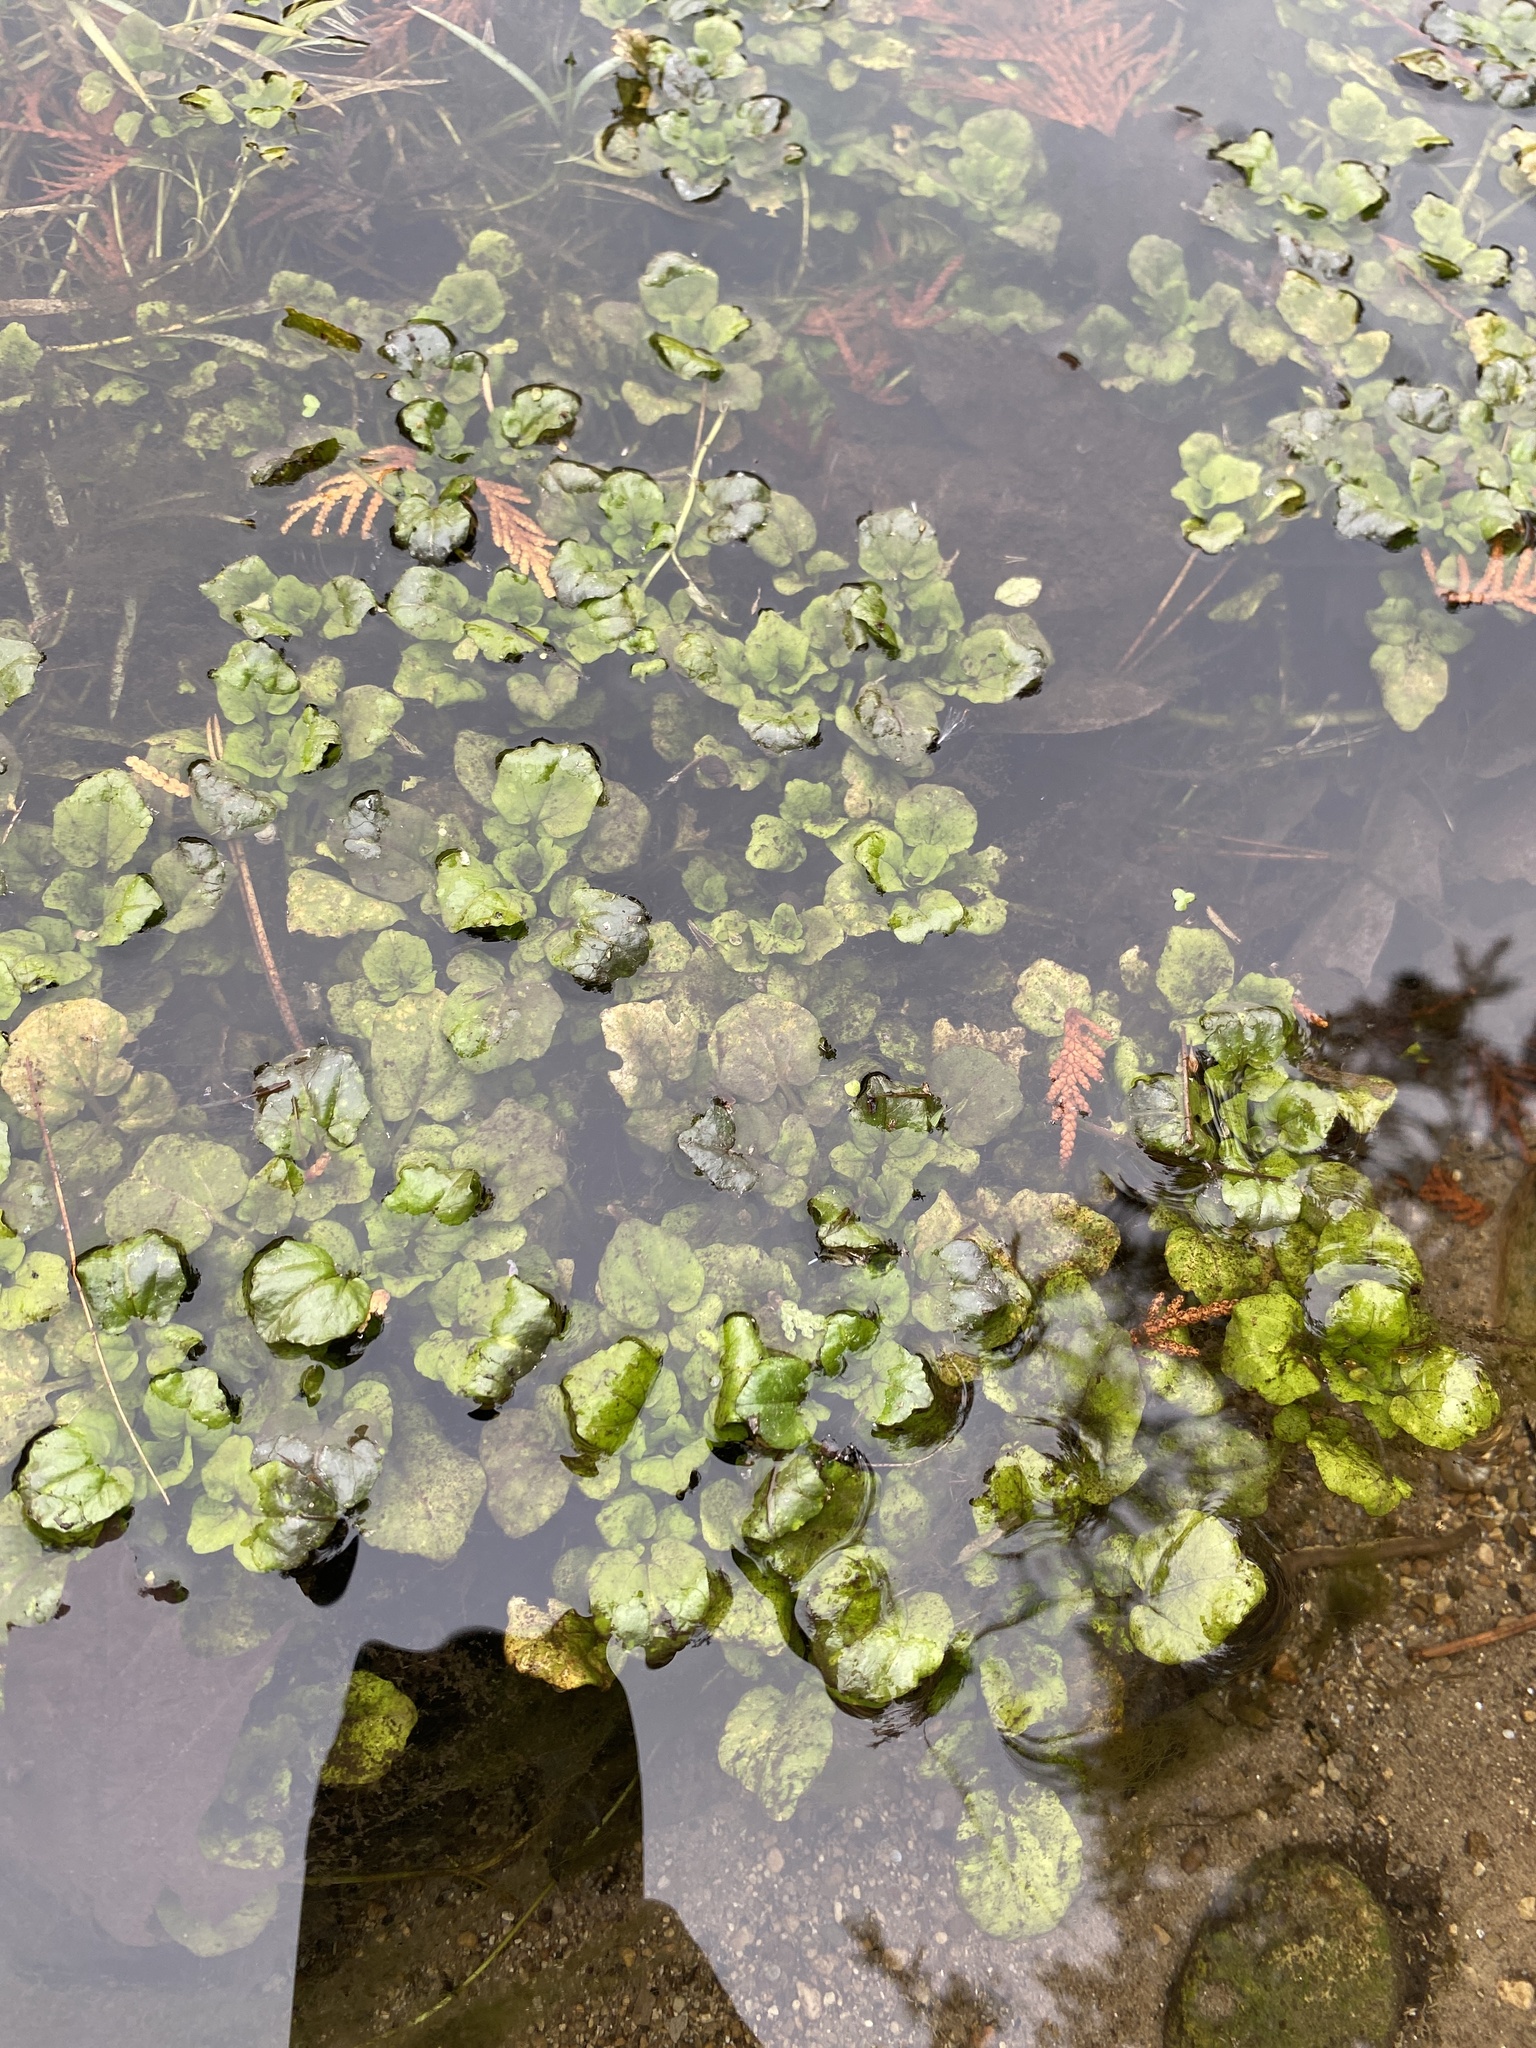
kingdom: Plantae
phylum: Tracheophyta
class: Magnoliopsida
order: Brassicales
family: Brassicaceae
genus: Nasturtium
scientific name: Nasturtium officinale
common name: Watercress
